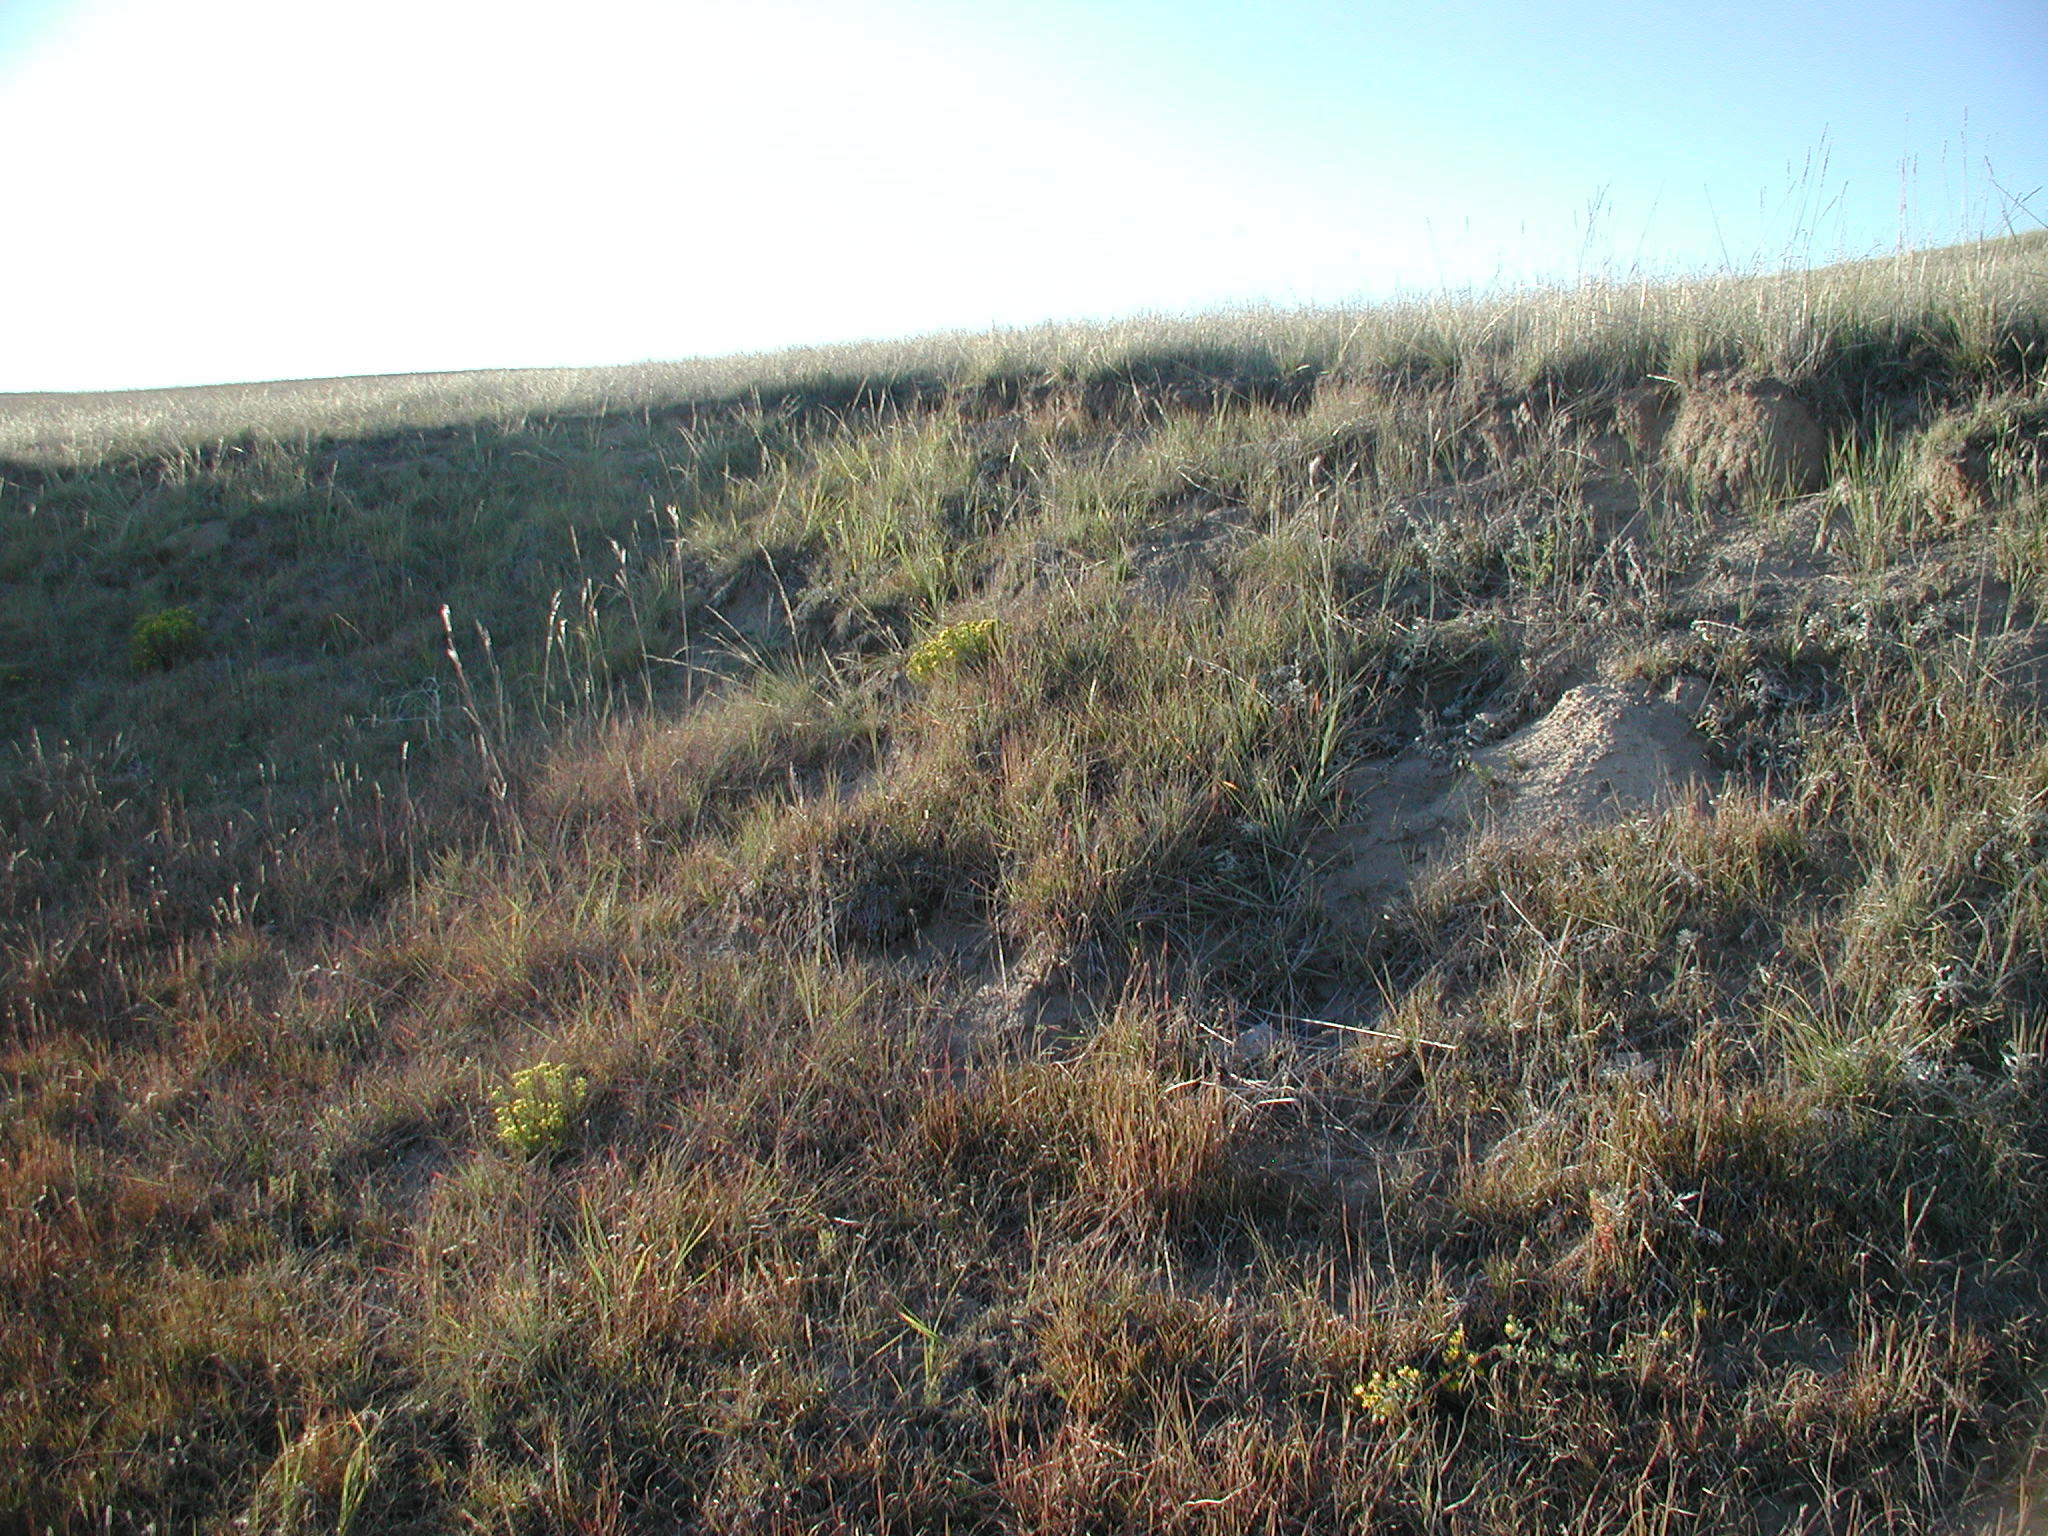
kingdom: Plantae
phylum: Tracheophyta
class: Liliopsida
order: Poales
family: Poaceae
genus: Andropogon
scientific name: Andropogon hallii
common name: Sand bluestem
